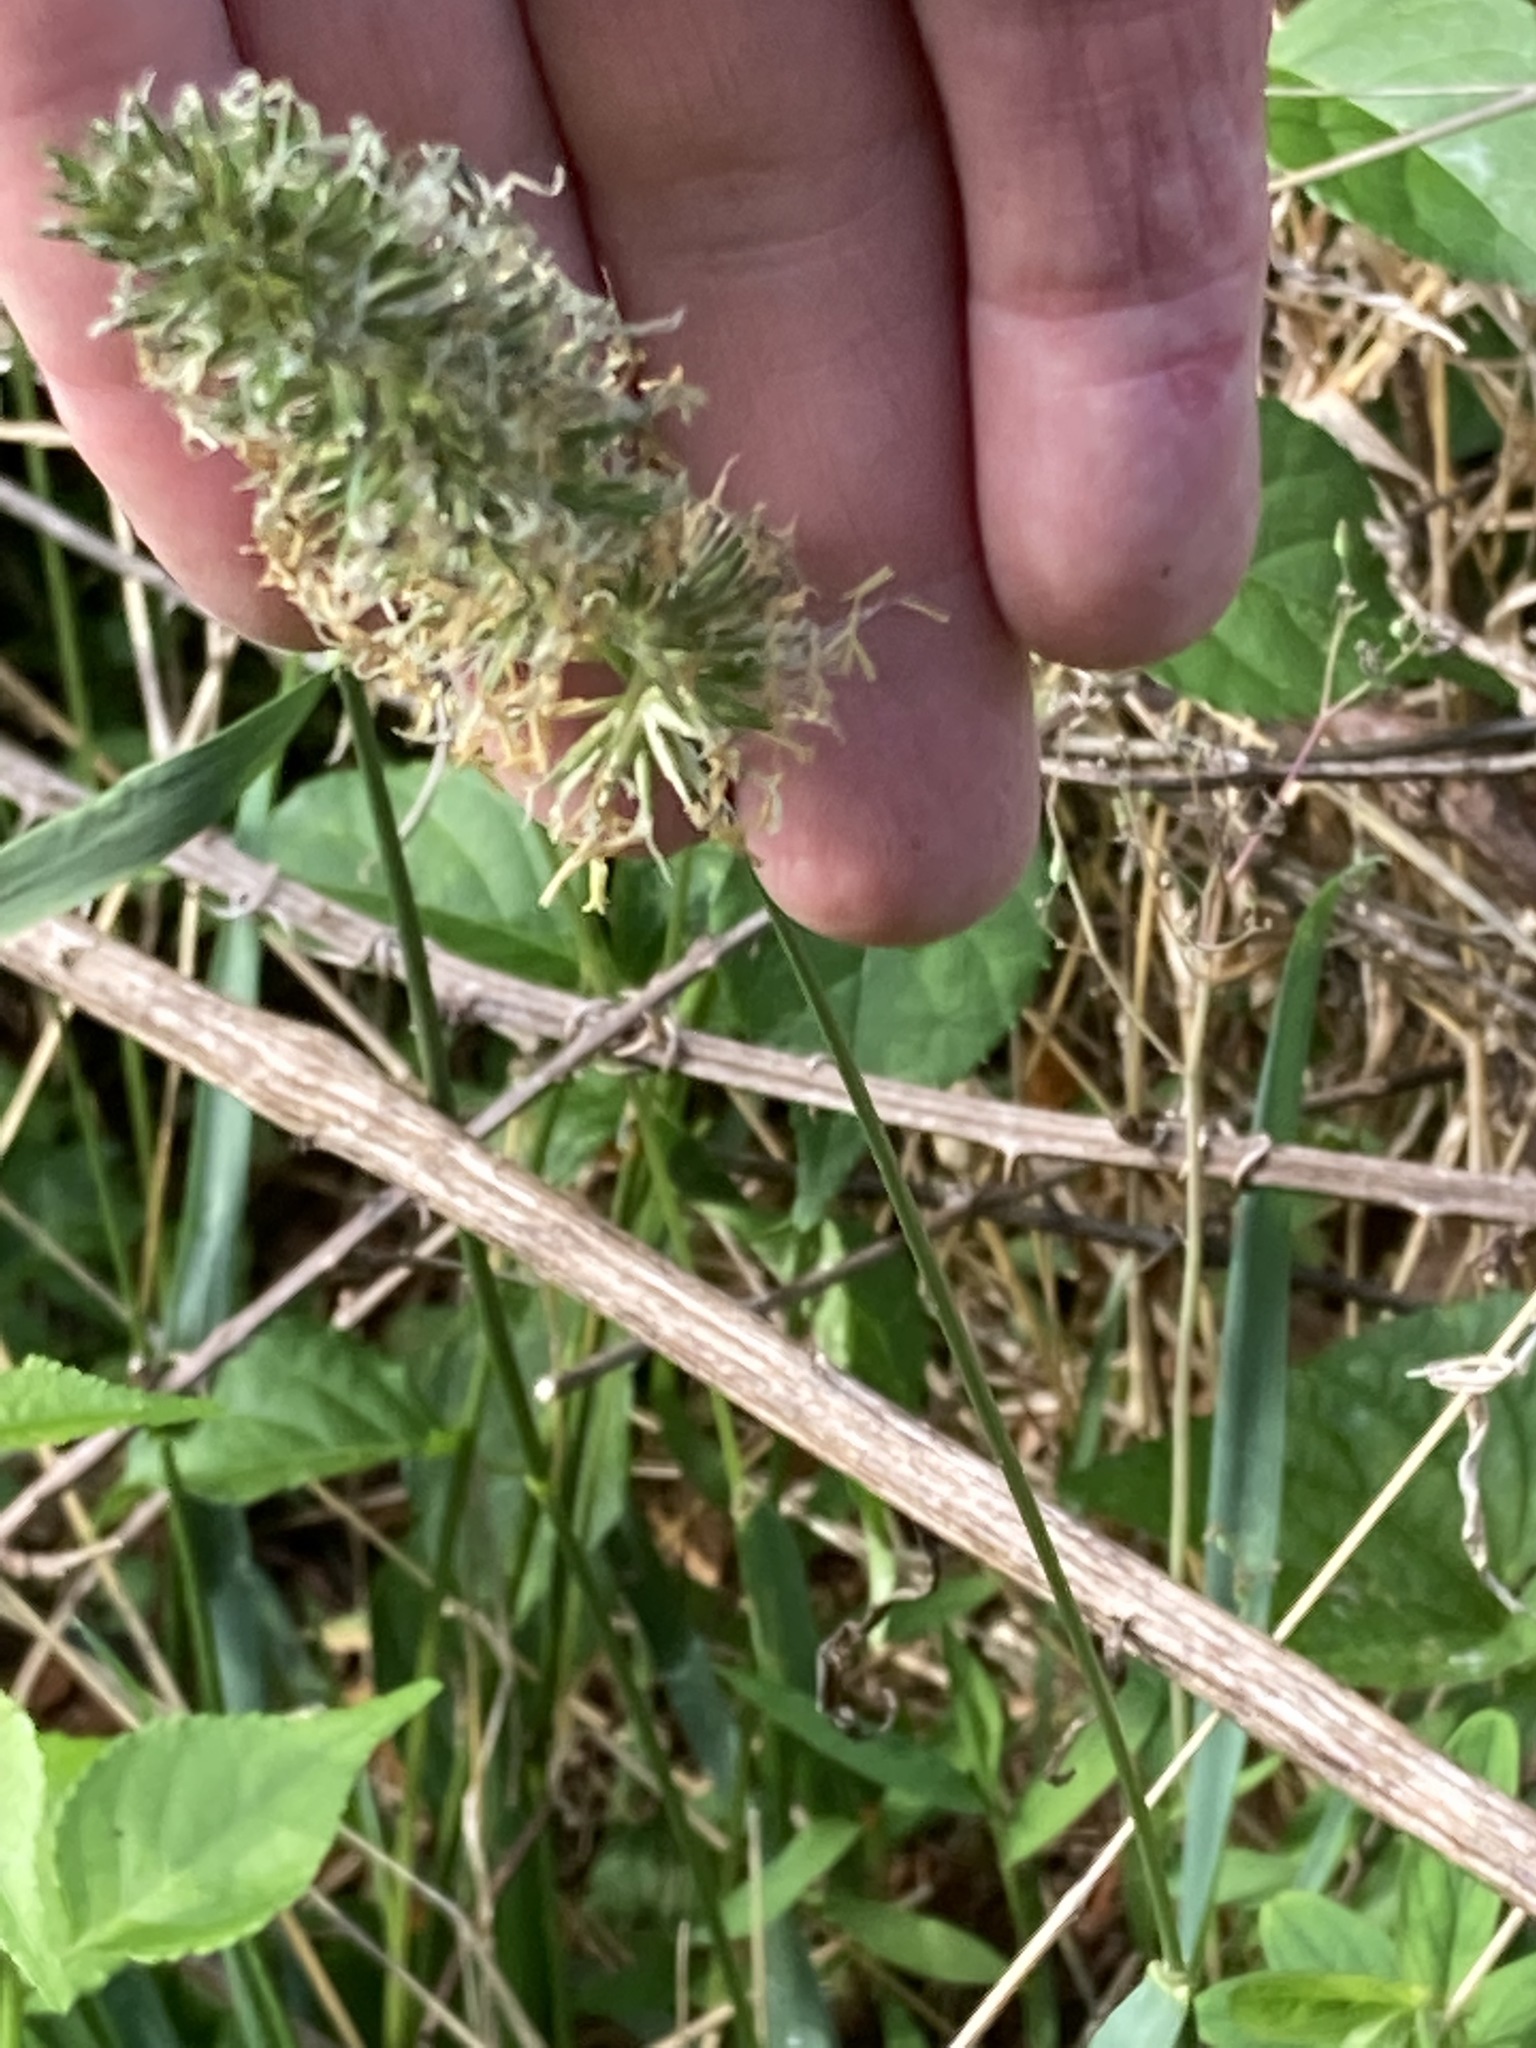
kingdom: Plantae
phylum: Tracheophyta
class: Liliopsida
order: Poales
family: Poaceae
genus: Anthoxanthum
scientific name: Anthoxanthum odoratum
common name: Sweet vernalgrass
